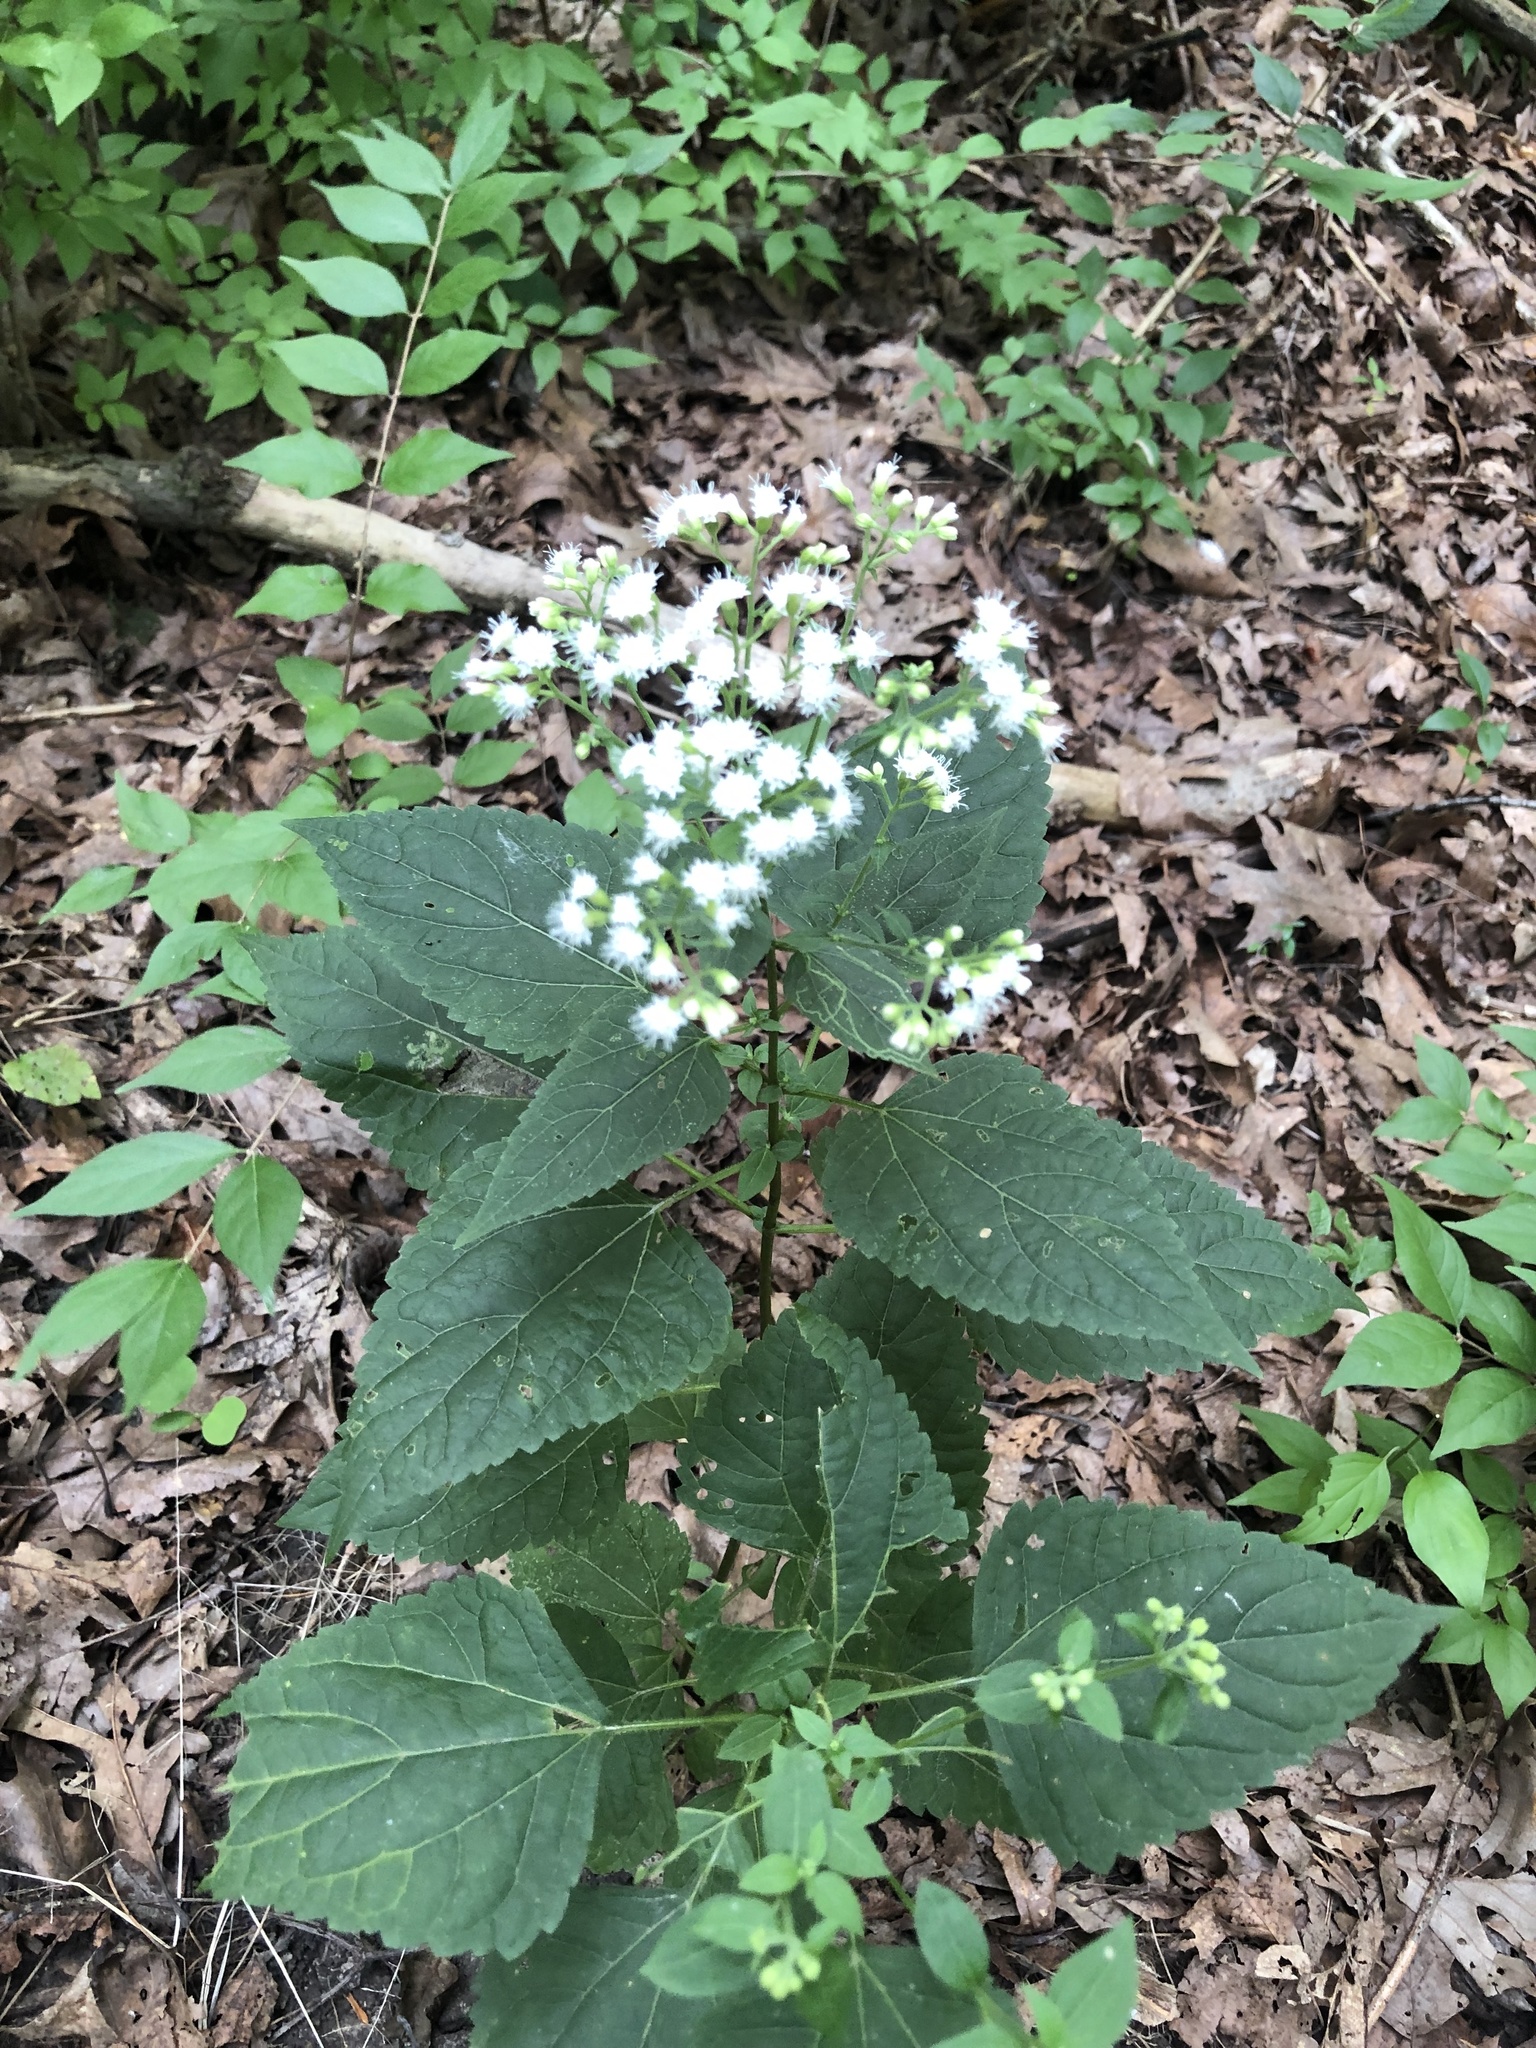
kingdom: Plantae
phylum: Tracheophyta
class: Magnoliopsida
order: Asterales
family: Asteraceae
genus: Ageratina
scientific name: Ageratina altissima
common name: White snakeroot
